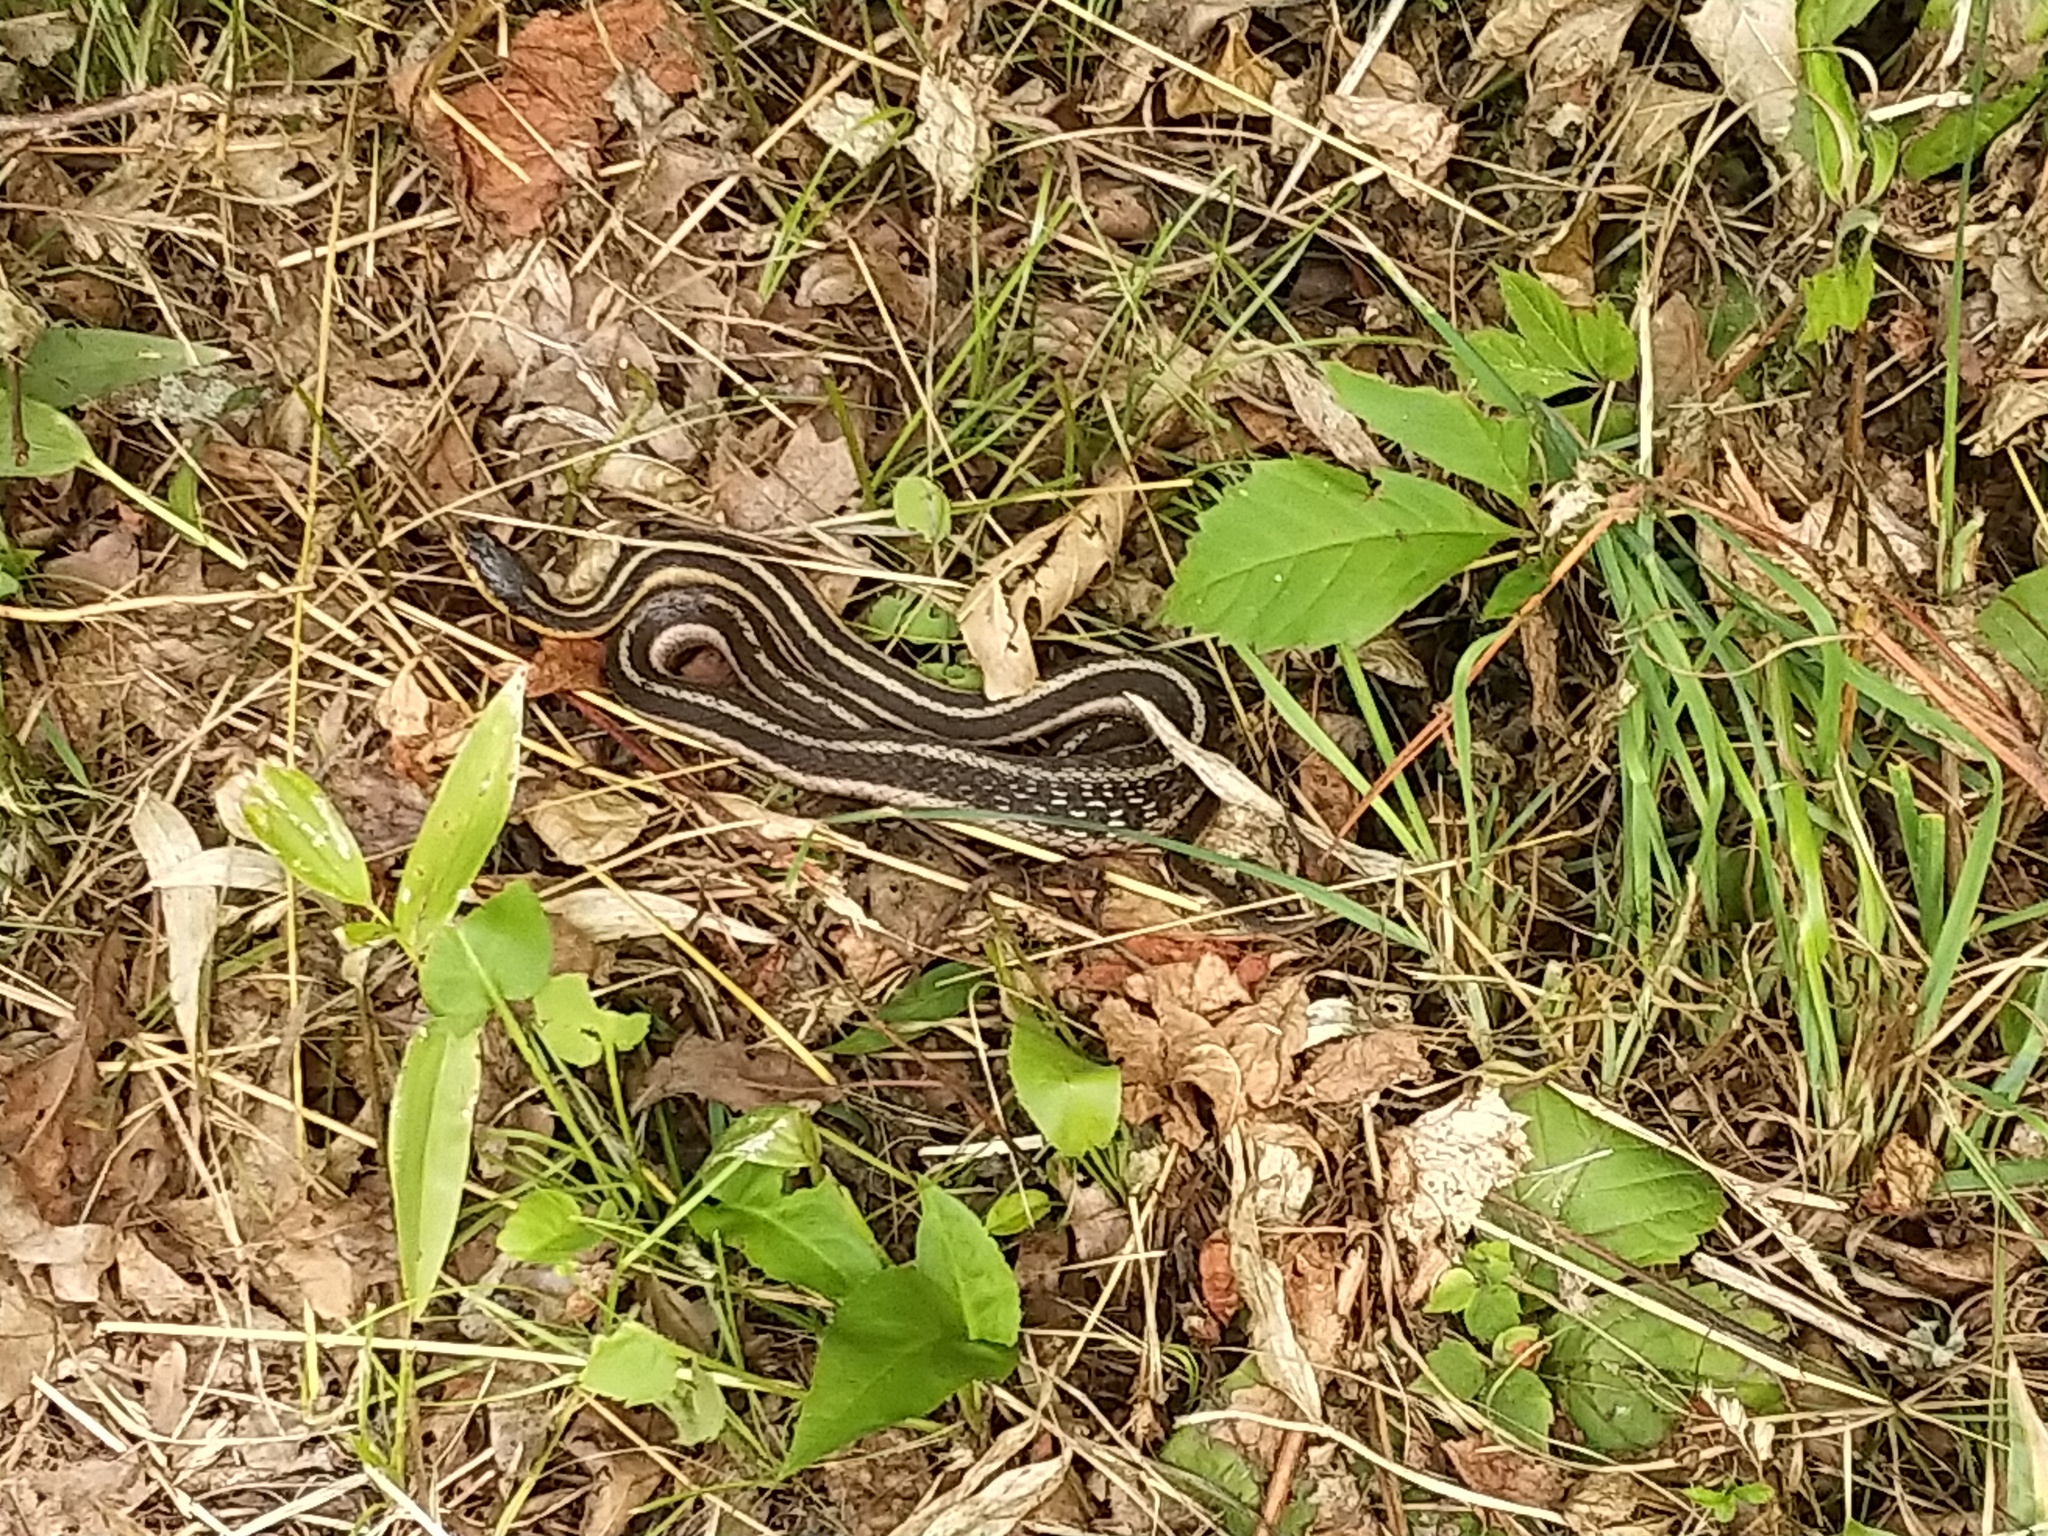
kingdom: Animalia
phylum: Chordata
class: Squamata
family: Colubridae
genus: Thamnophis
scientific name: Thamnophis sirtalis
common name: Common garter snake
